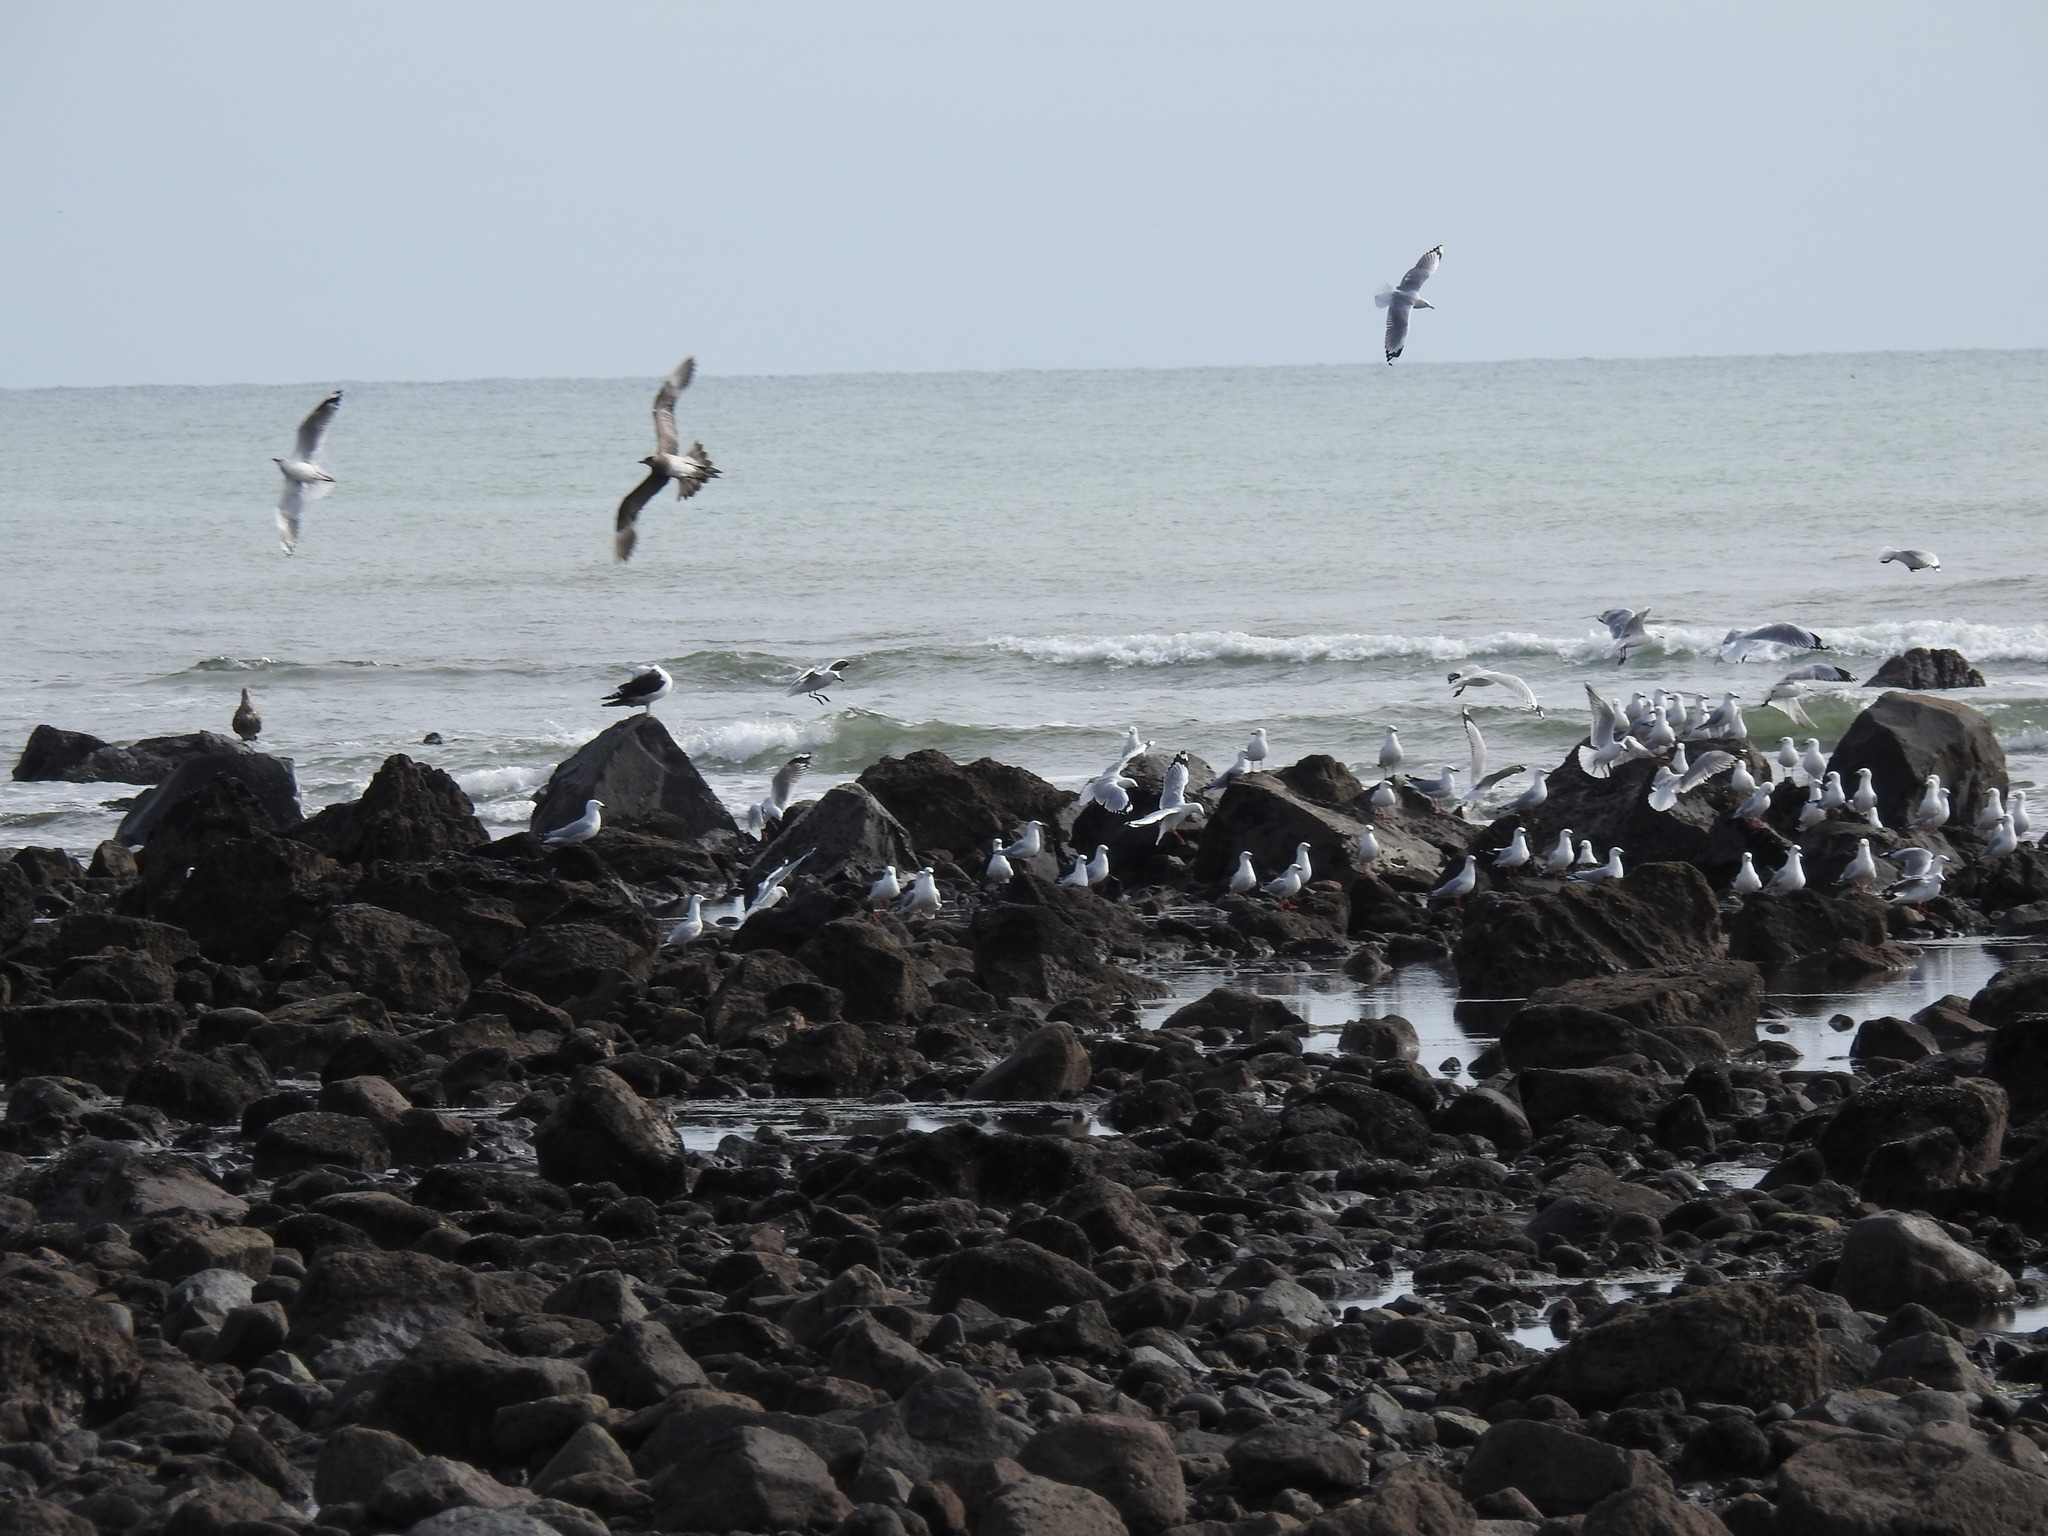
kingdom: Animalia
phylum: Chordata
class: Aves
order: Charadriiformes
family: Stercorariidae
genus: Stercorarius
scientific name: Stercorarius parasiticus
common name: Parasitic jaeger
